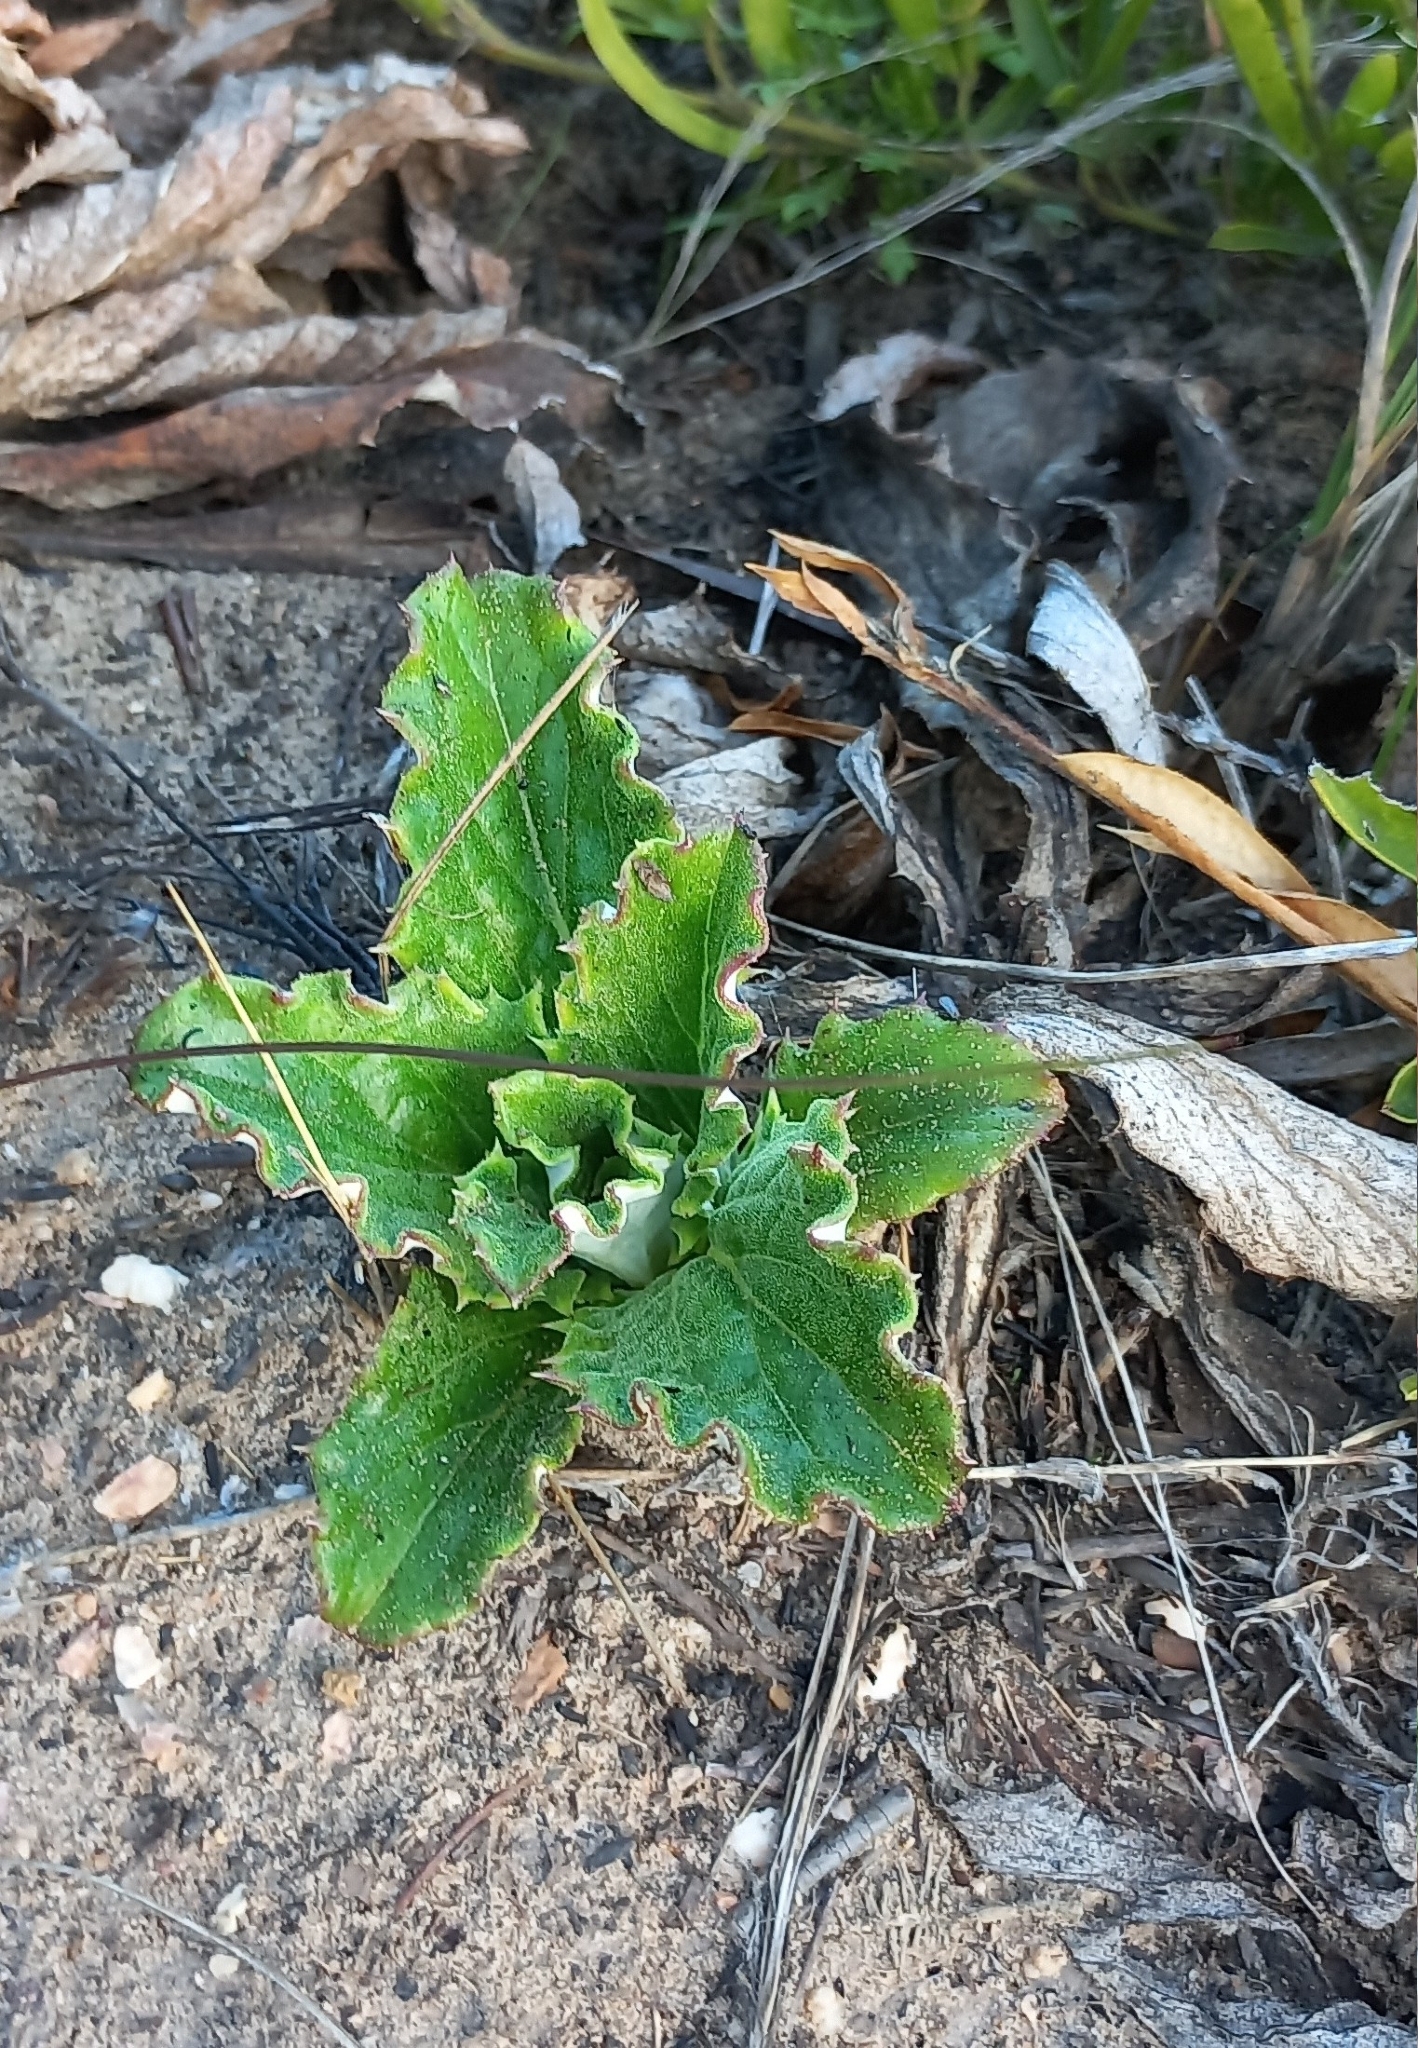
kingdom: Plantae
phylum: Tracheophyta
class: Magnoliopsida
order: Asterales
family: Asteraceae
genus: Berkheya
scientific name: Berkheya herbacea
